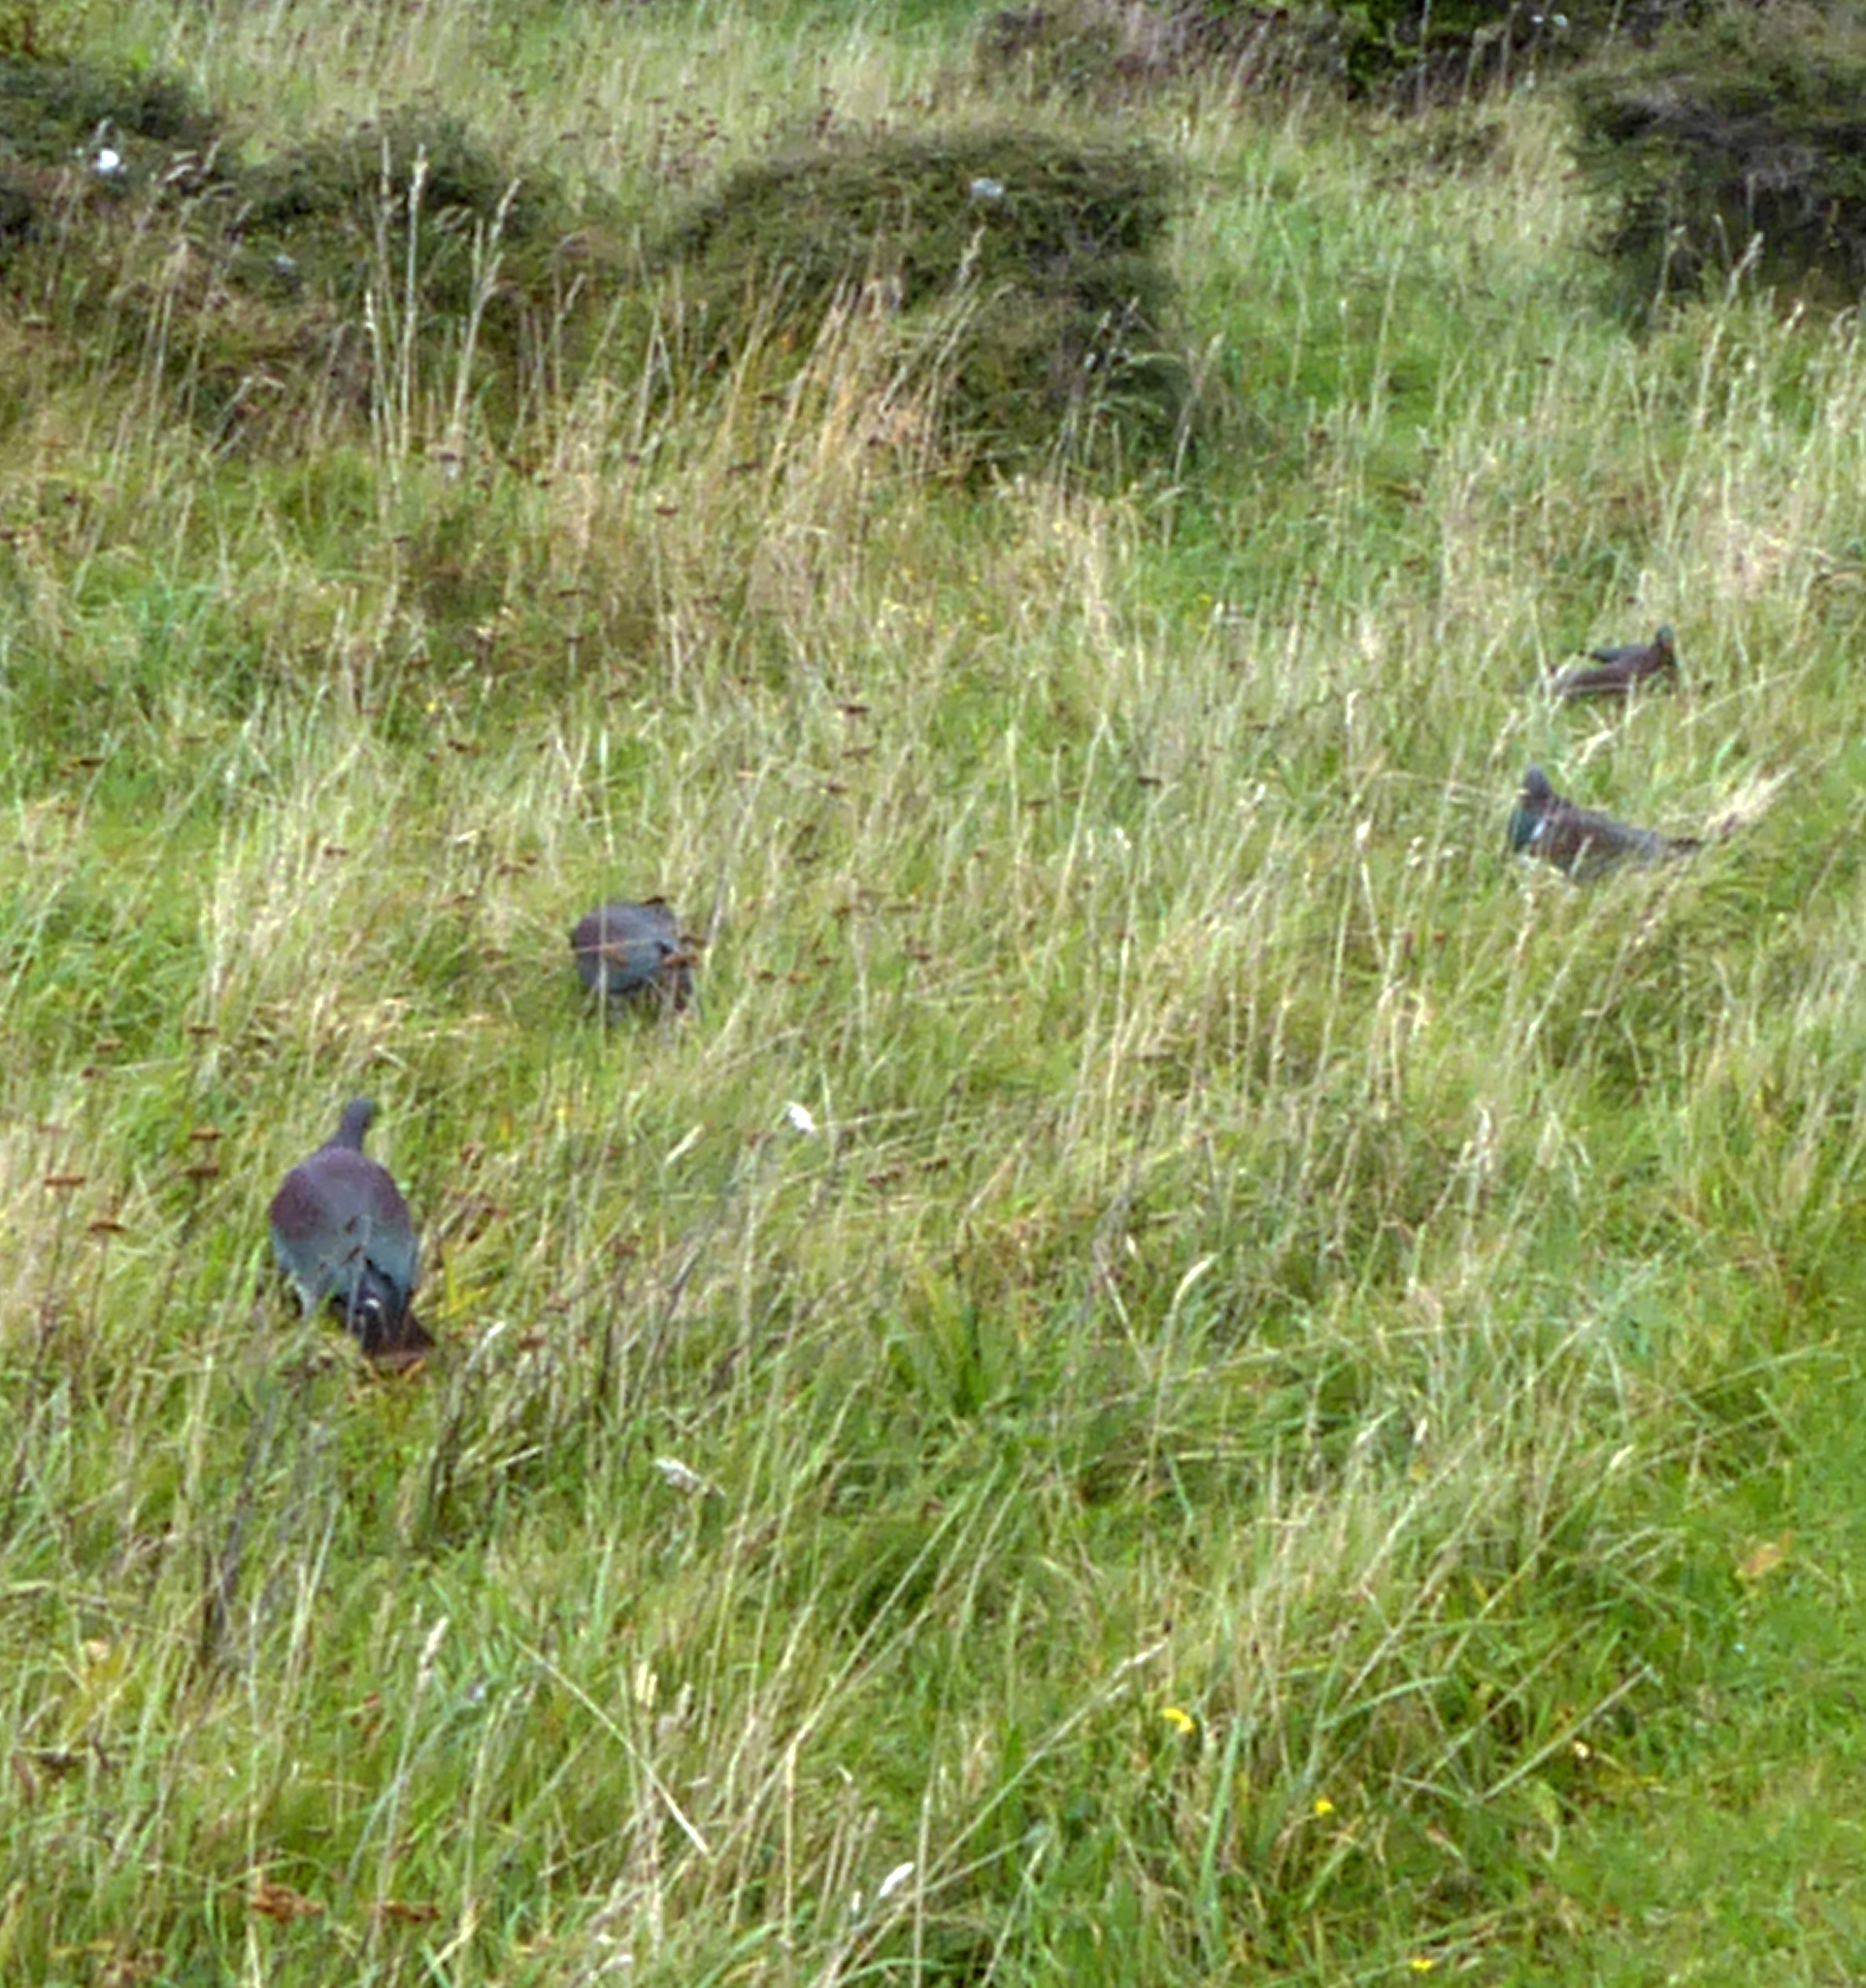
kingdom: Animalia
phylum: Chordata
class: Aves
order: Columbiformes
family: Columbidae
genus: Hemiphaga
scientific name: Hemiphaga novaeseelandiae
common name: New zealand pigeon
